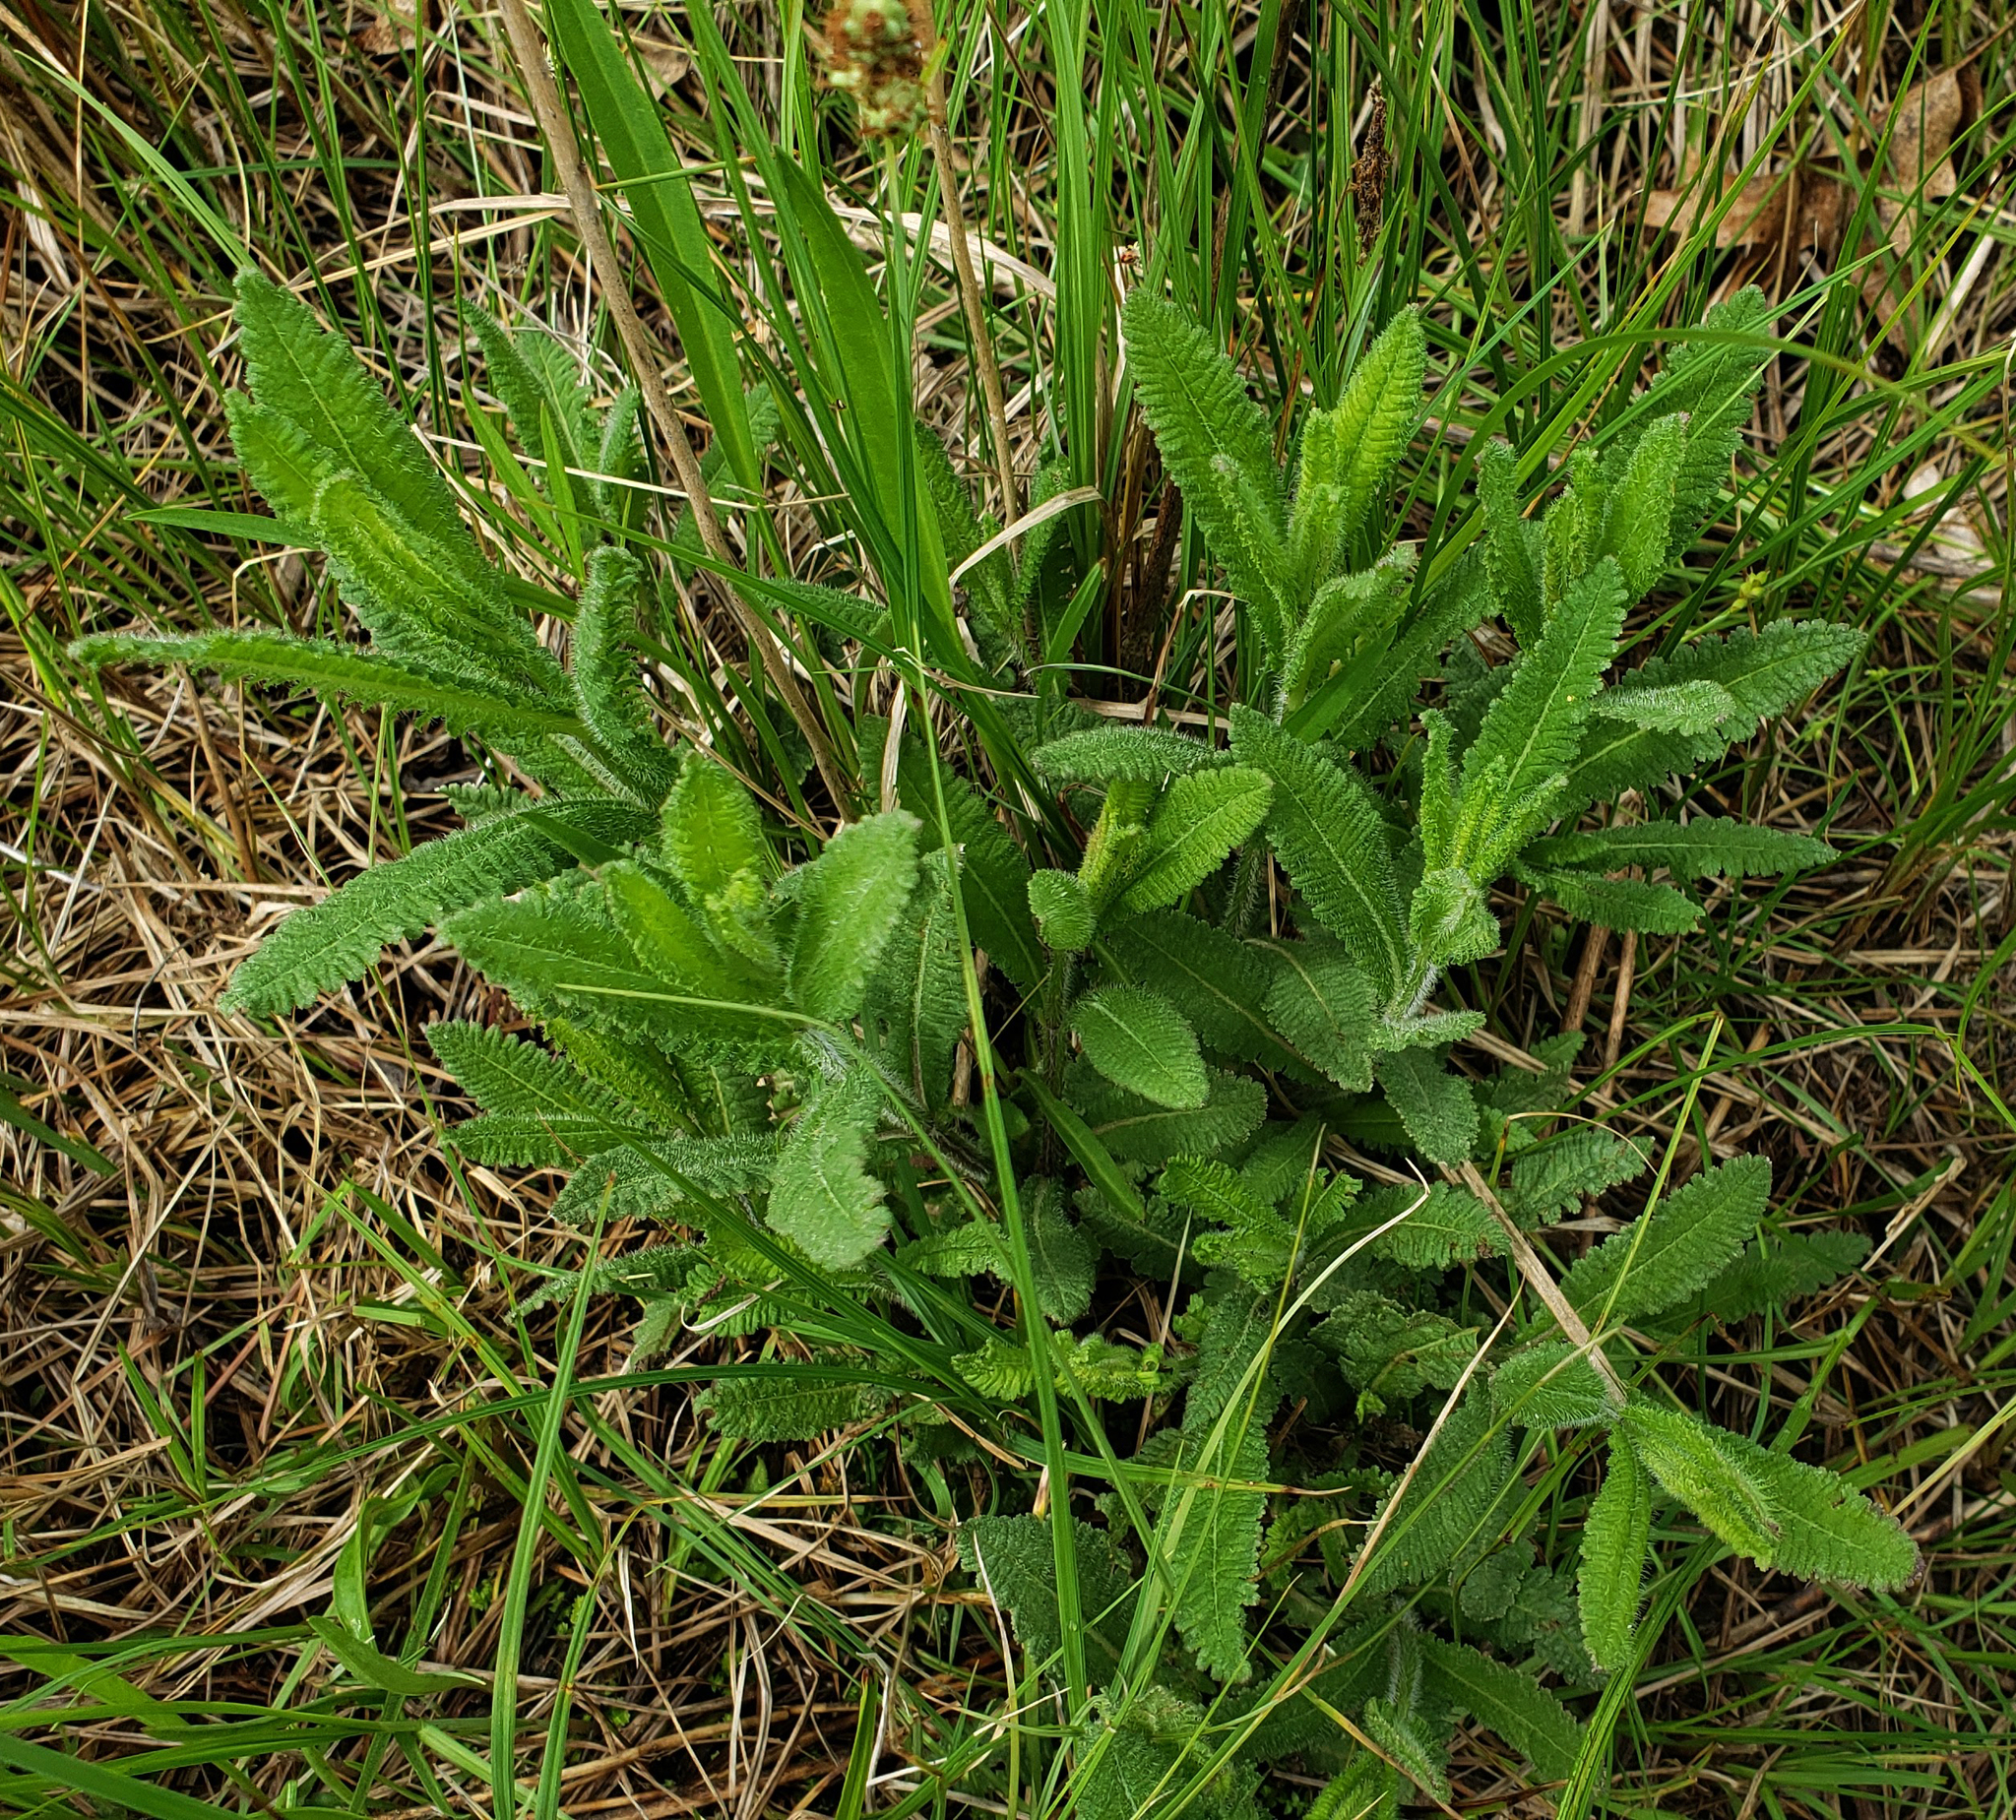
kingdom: Plantae
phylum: Tracheophyta
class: Magnoliopsida
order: Lamiales
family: Orobanchaceae
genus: Pedicularis
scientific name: Pedicularis lanceolata
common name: Swamp lousewort
